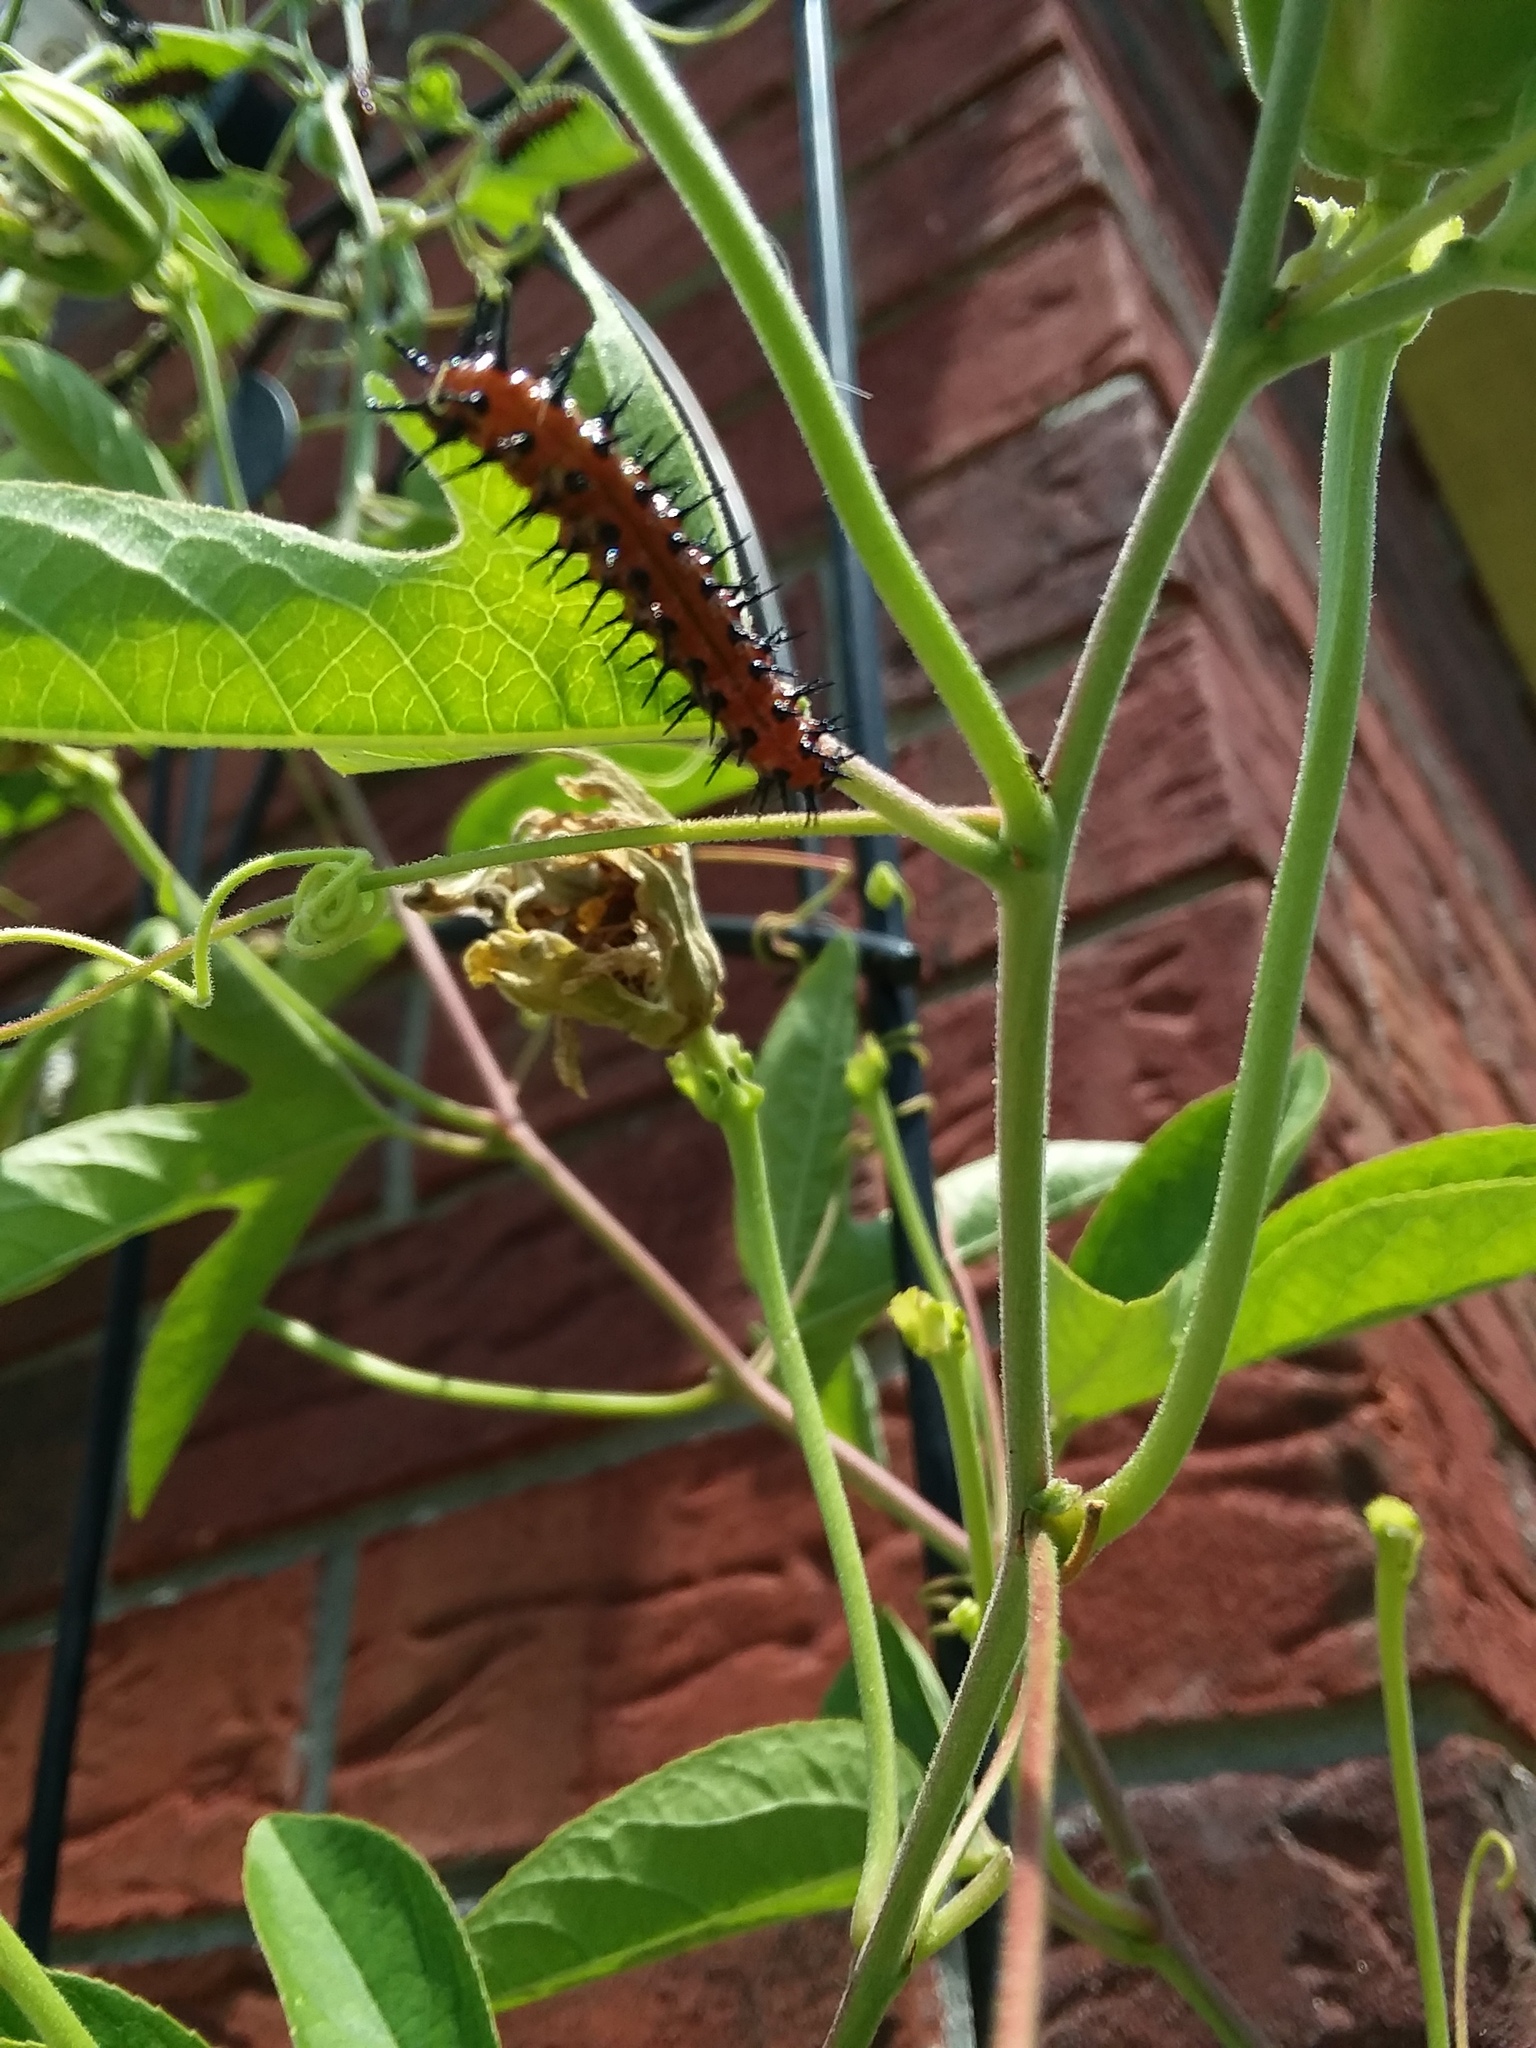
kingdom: Animalia
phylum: Arthropoda
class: Insecta
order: Lepidoptera
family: Nymphalidae
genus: Dione
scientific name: Dione vanillae
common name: Gulf fritillary
